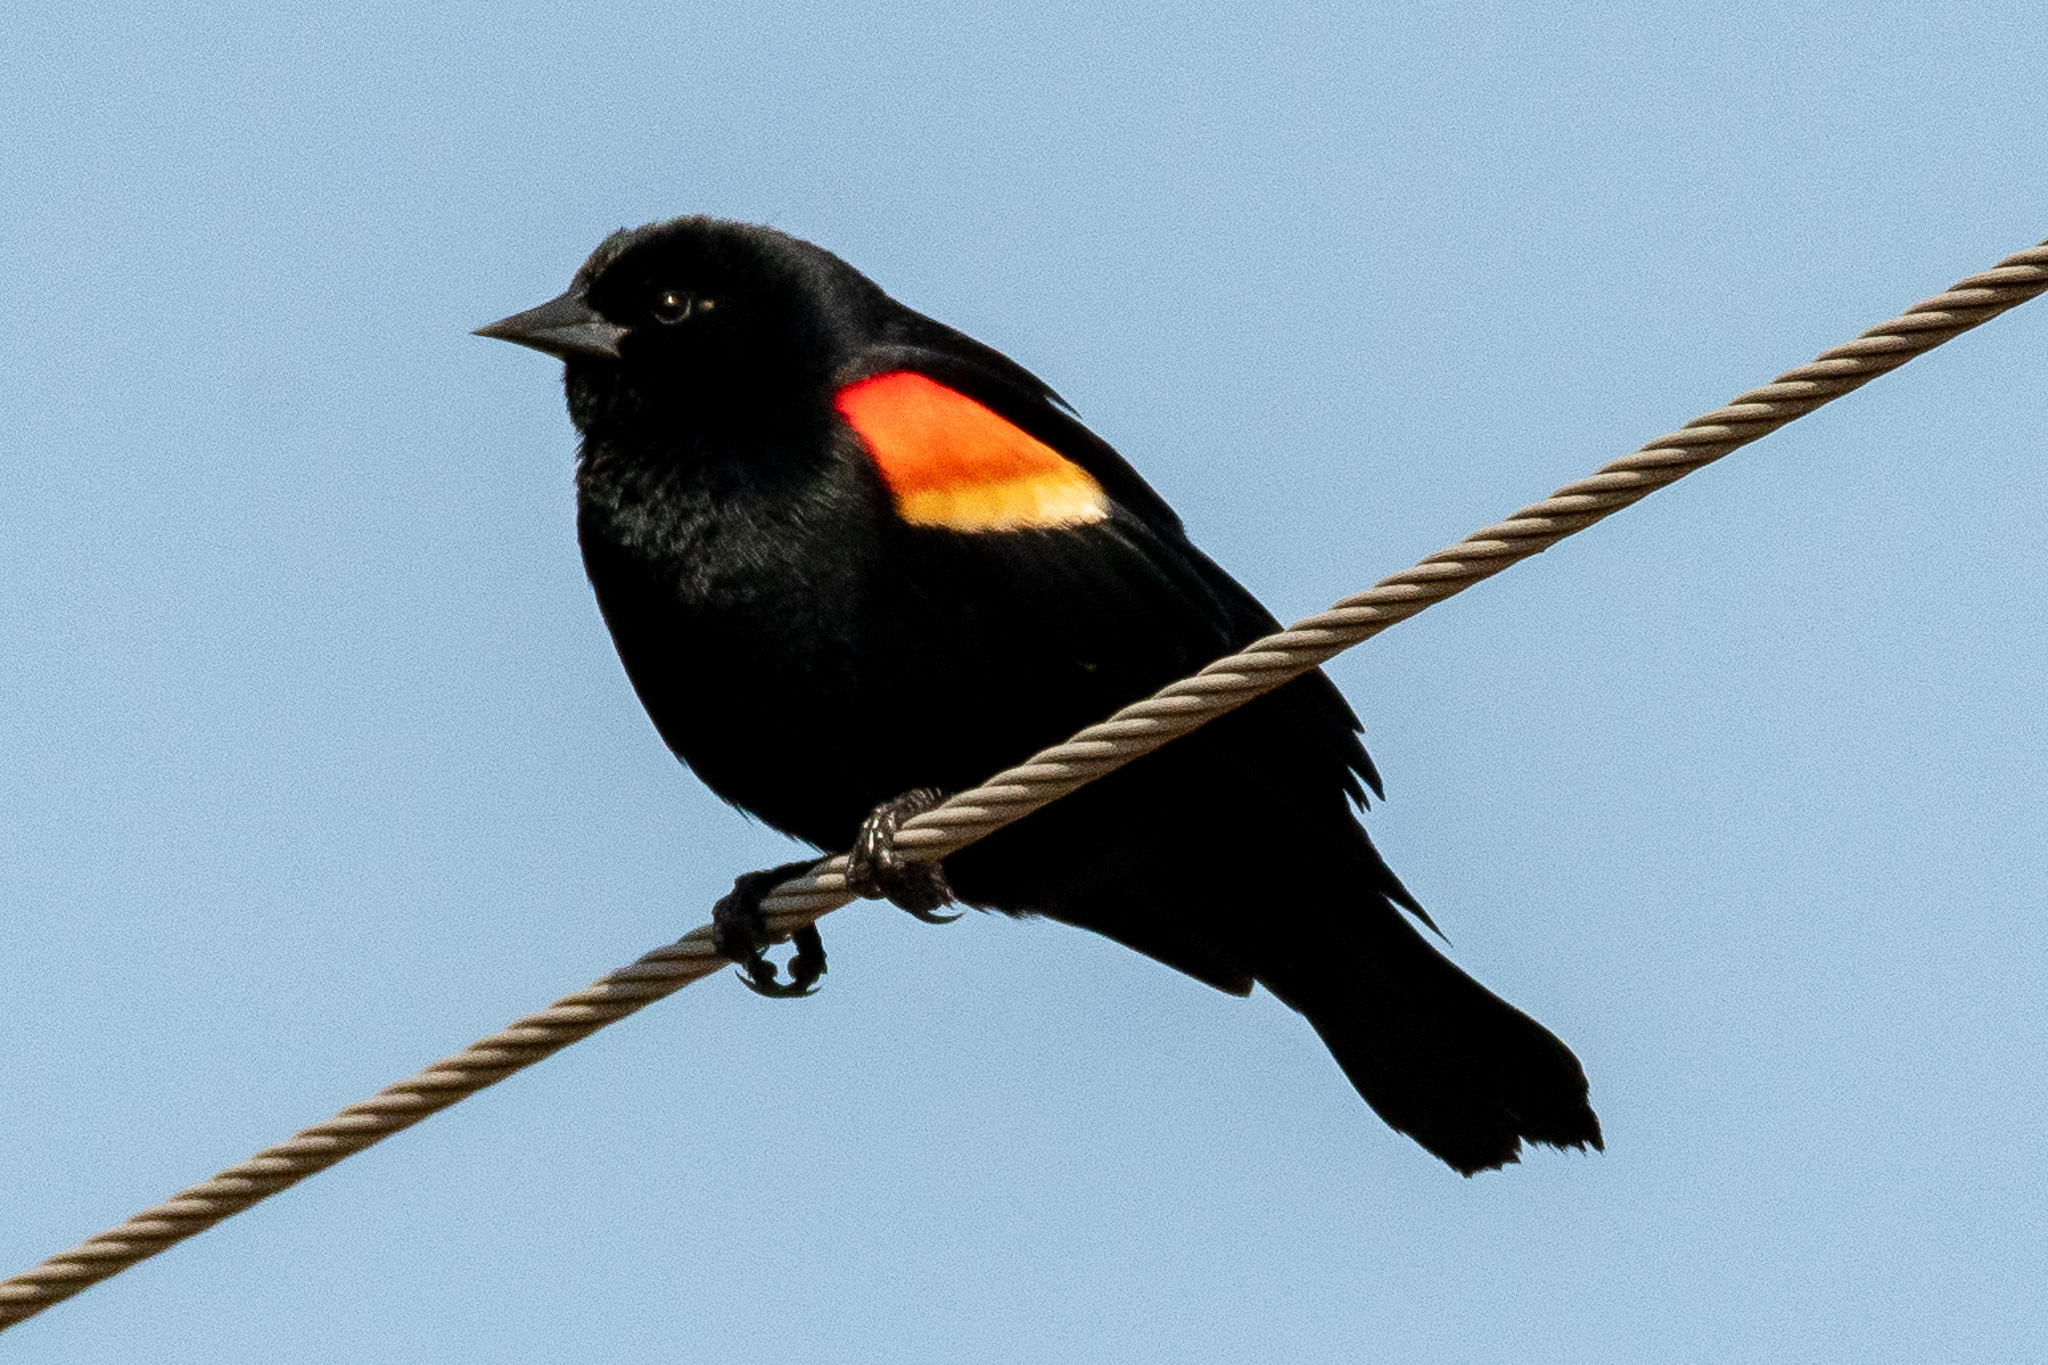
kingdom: Animalia
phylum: Chordata
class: Aves
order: Passeriformes
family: Icteridae
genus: Agelaius
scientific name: Agelaius phoeniceus
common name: Red-winged blackbird
